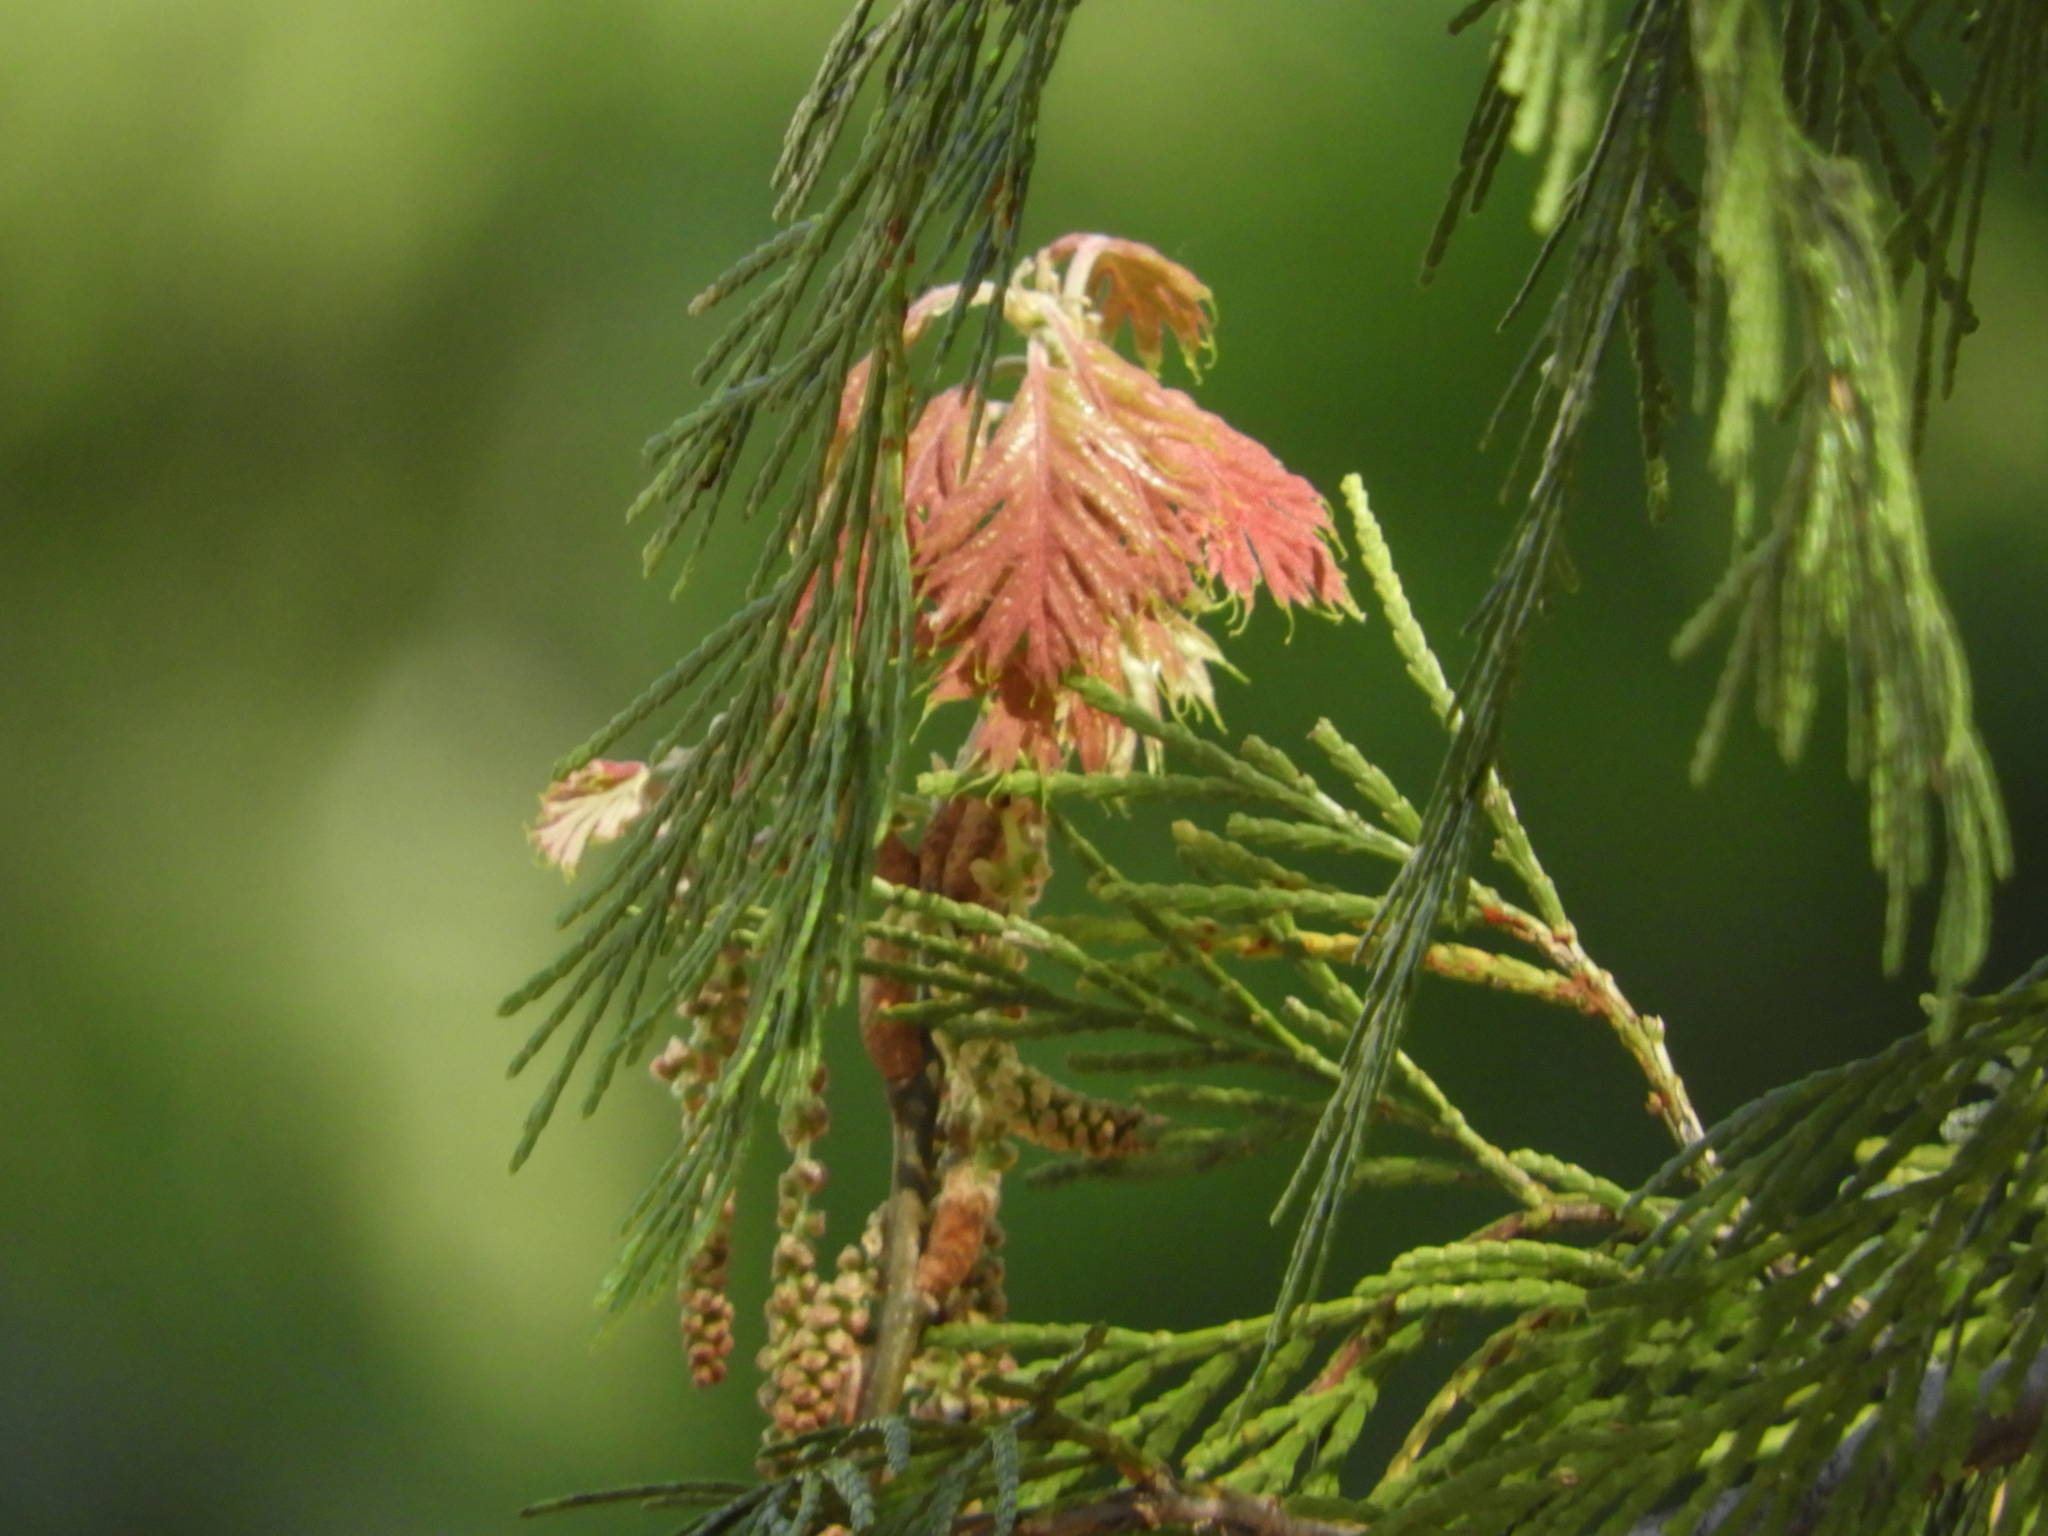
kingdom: Plantae
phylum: Tracheophyta
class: Magnoliopsida
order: Fagales
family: Fagaceae
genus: Quercus
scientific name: Quercus kelloggii
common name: California black oak
